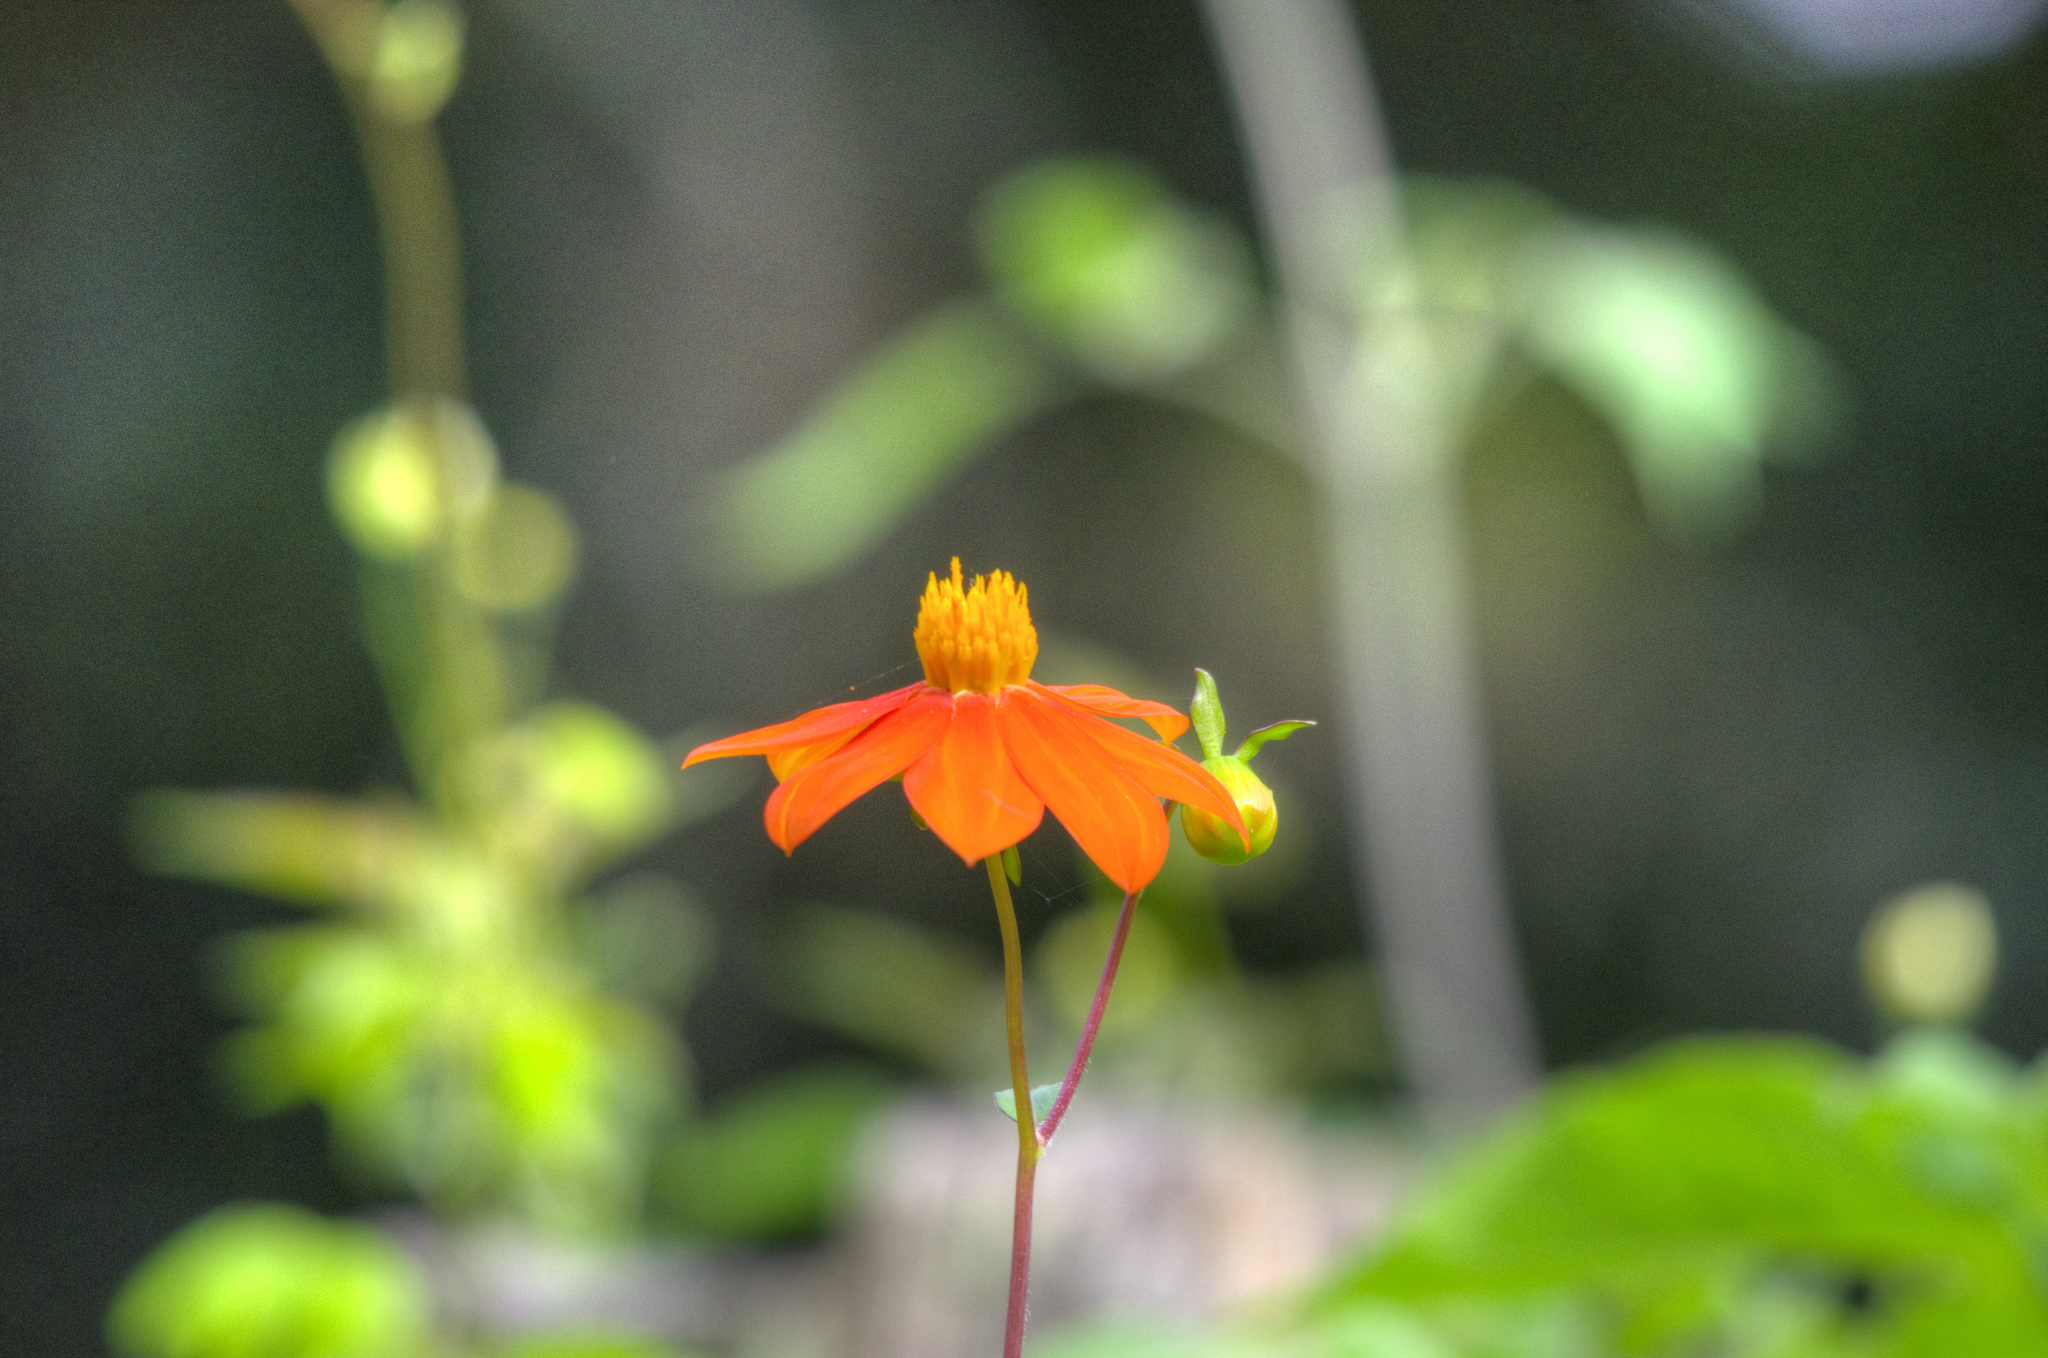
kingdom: Plantae
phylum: Tracheophyta
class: Magnoliopsida
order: Asterales
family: Asteraceae
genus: Dahlia
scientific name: Dahlia coccinea
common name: Red dahlia
